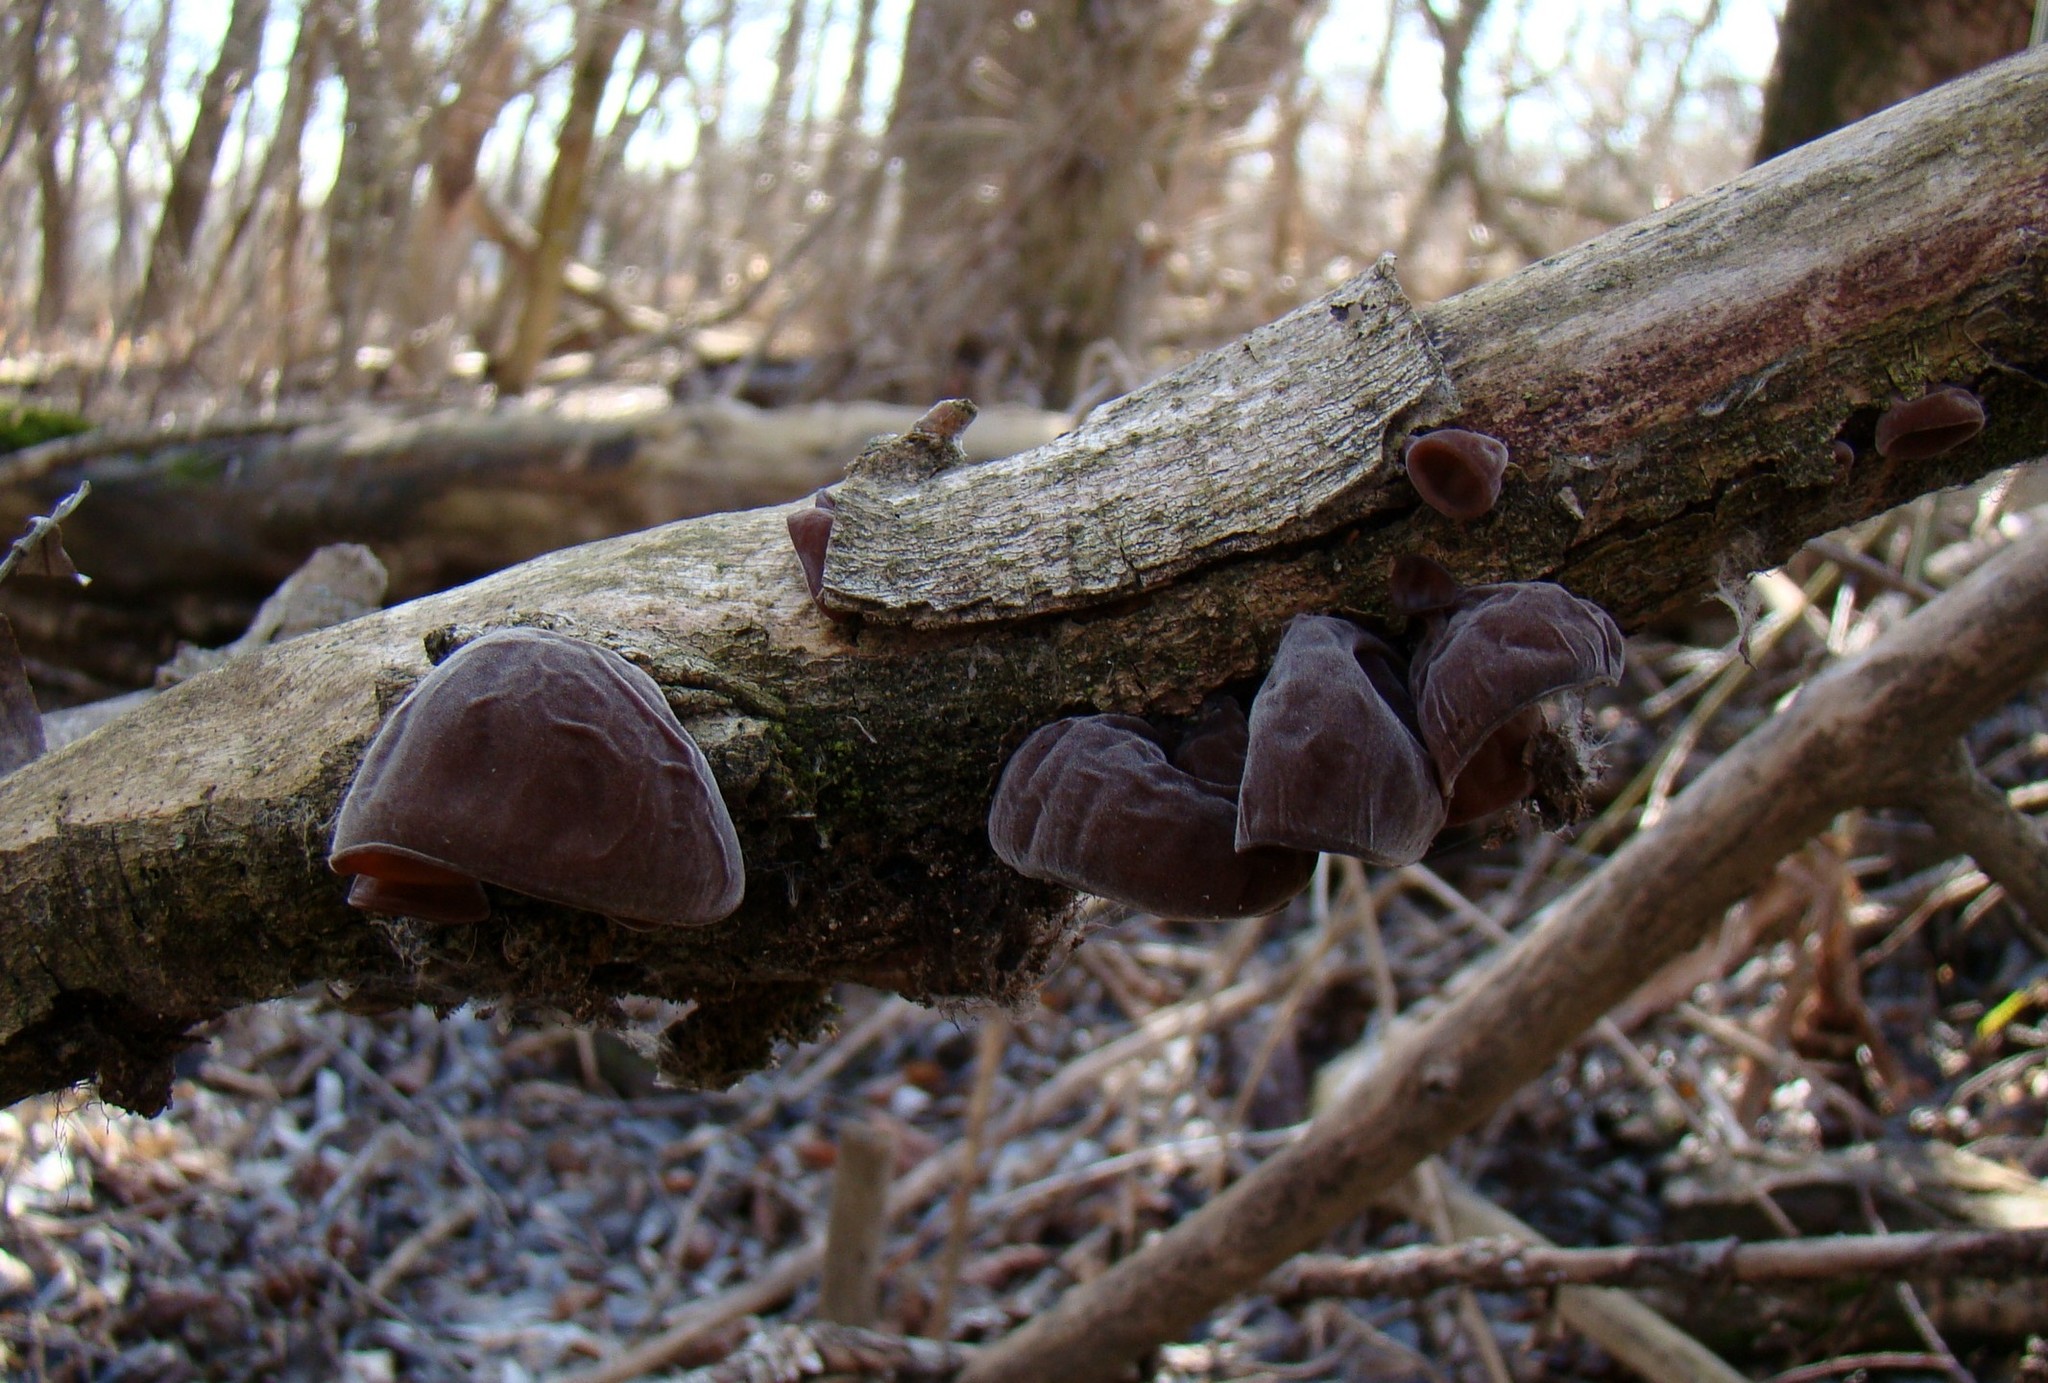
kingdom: Fungi
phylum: Basidiomycota
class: Agaricomycetes
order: Auriculariales
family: Auriculariaceae
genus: Auricularia
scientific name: Auricularia auricula-judae
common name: Jelly ear
